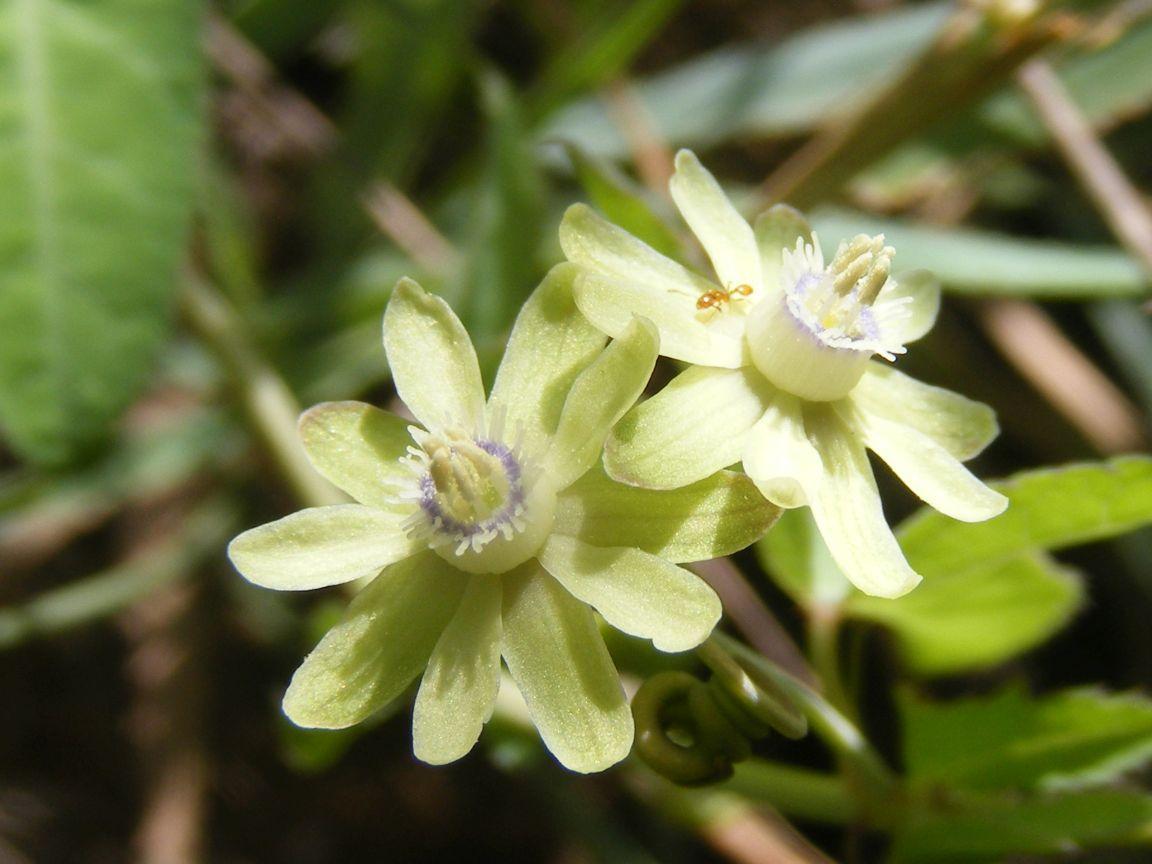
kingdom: Plantae
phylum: Tracheophyta
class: Magnoliopsida
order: Malpighiales
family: Passifloraceae
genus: Basananthe
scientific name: Basananthe triloba
